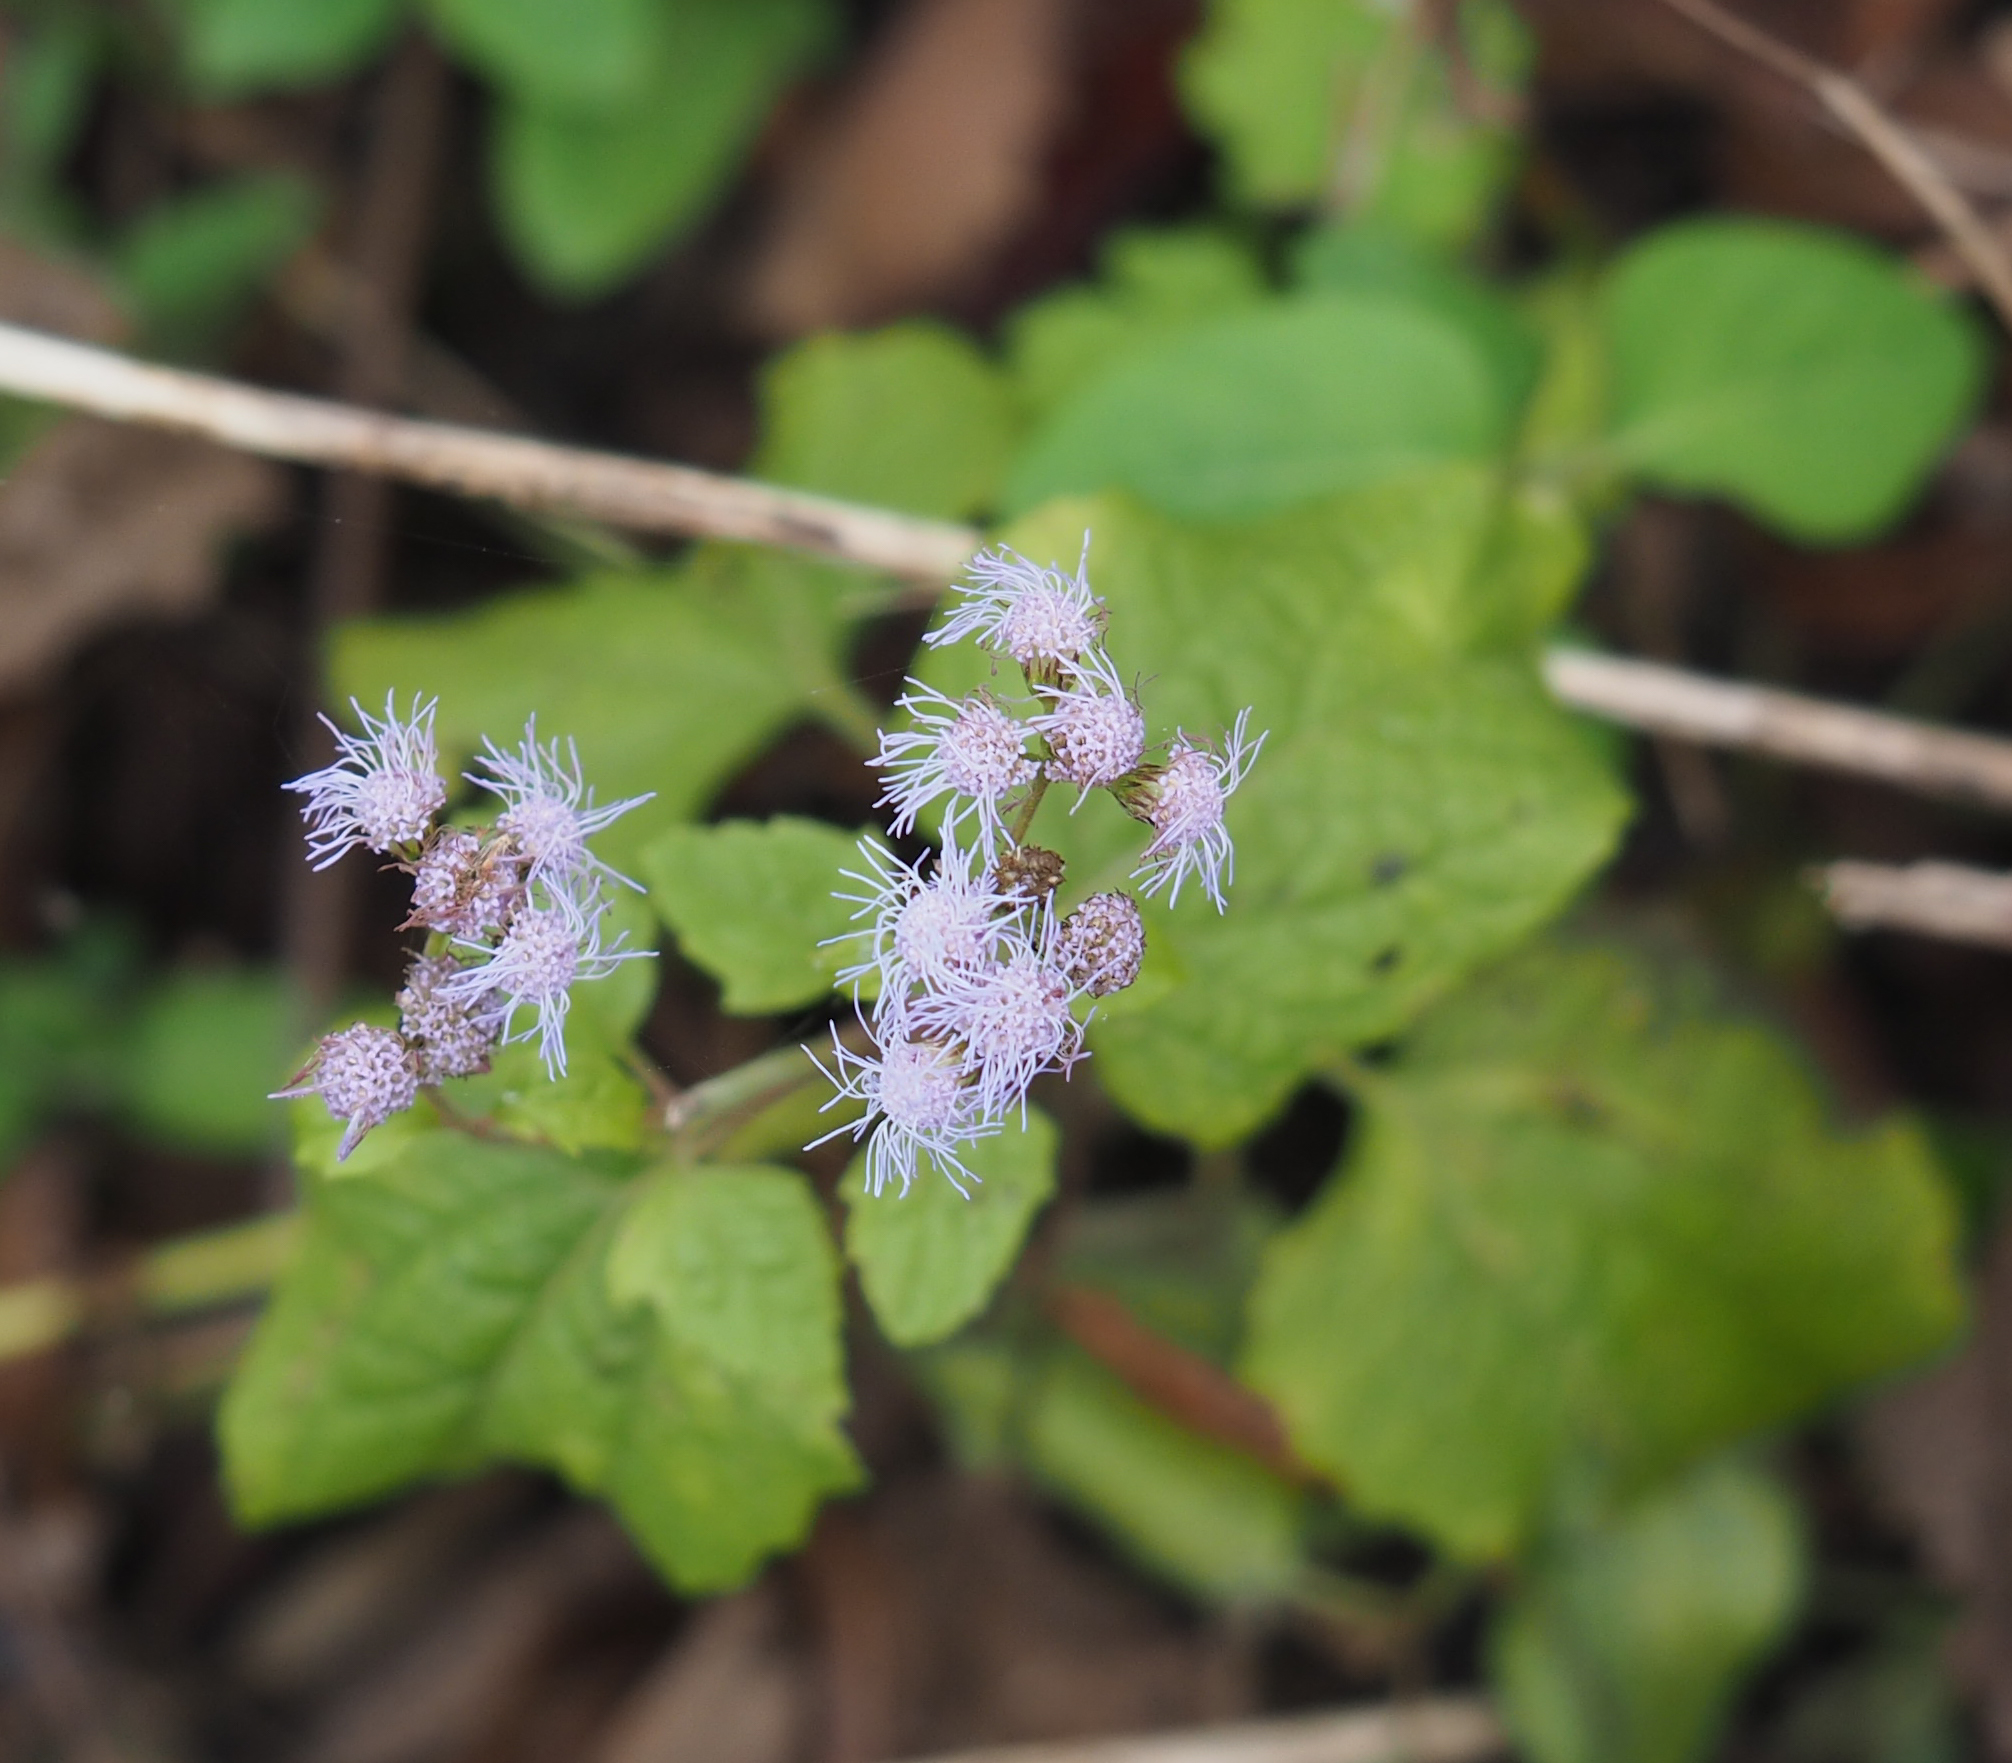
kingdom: Plantae
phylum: Tracheophyta
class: Magnoliopsida
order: Asterales
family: Asteraceae
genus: Conoclinium
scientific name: Conoclinium coelestinum
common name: Blue mistflower
